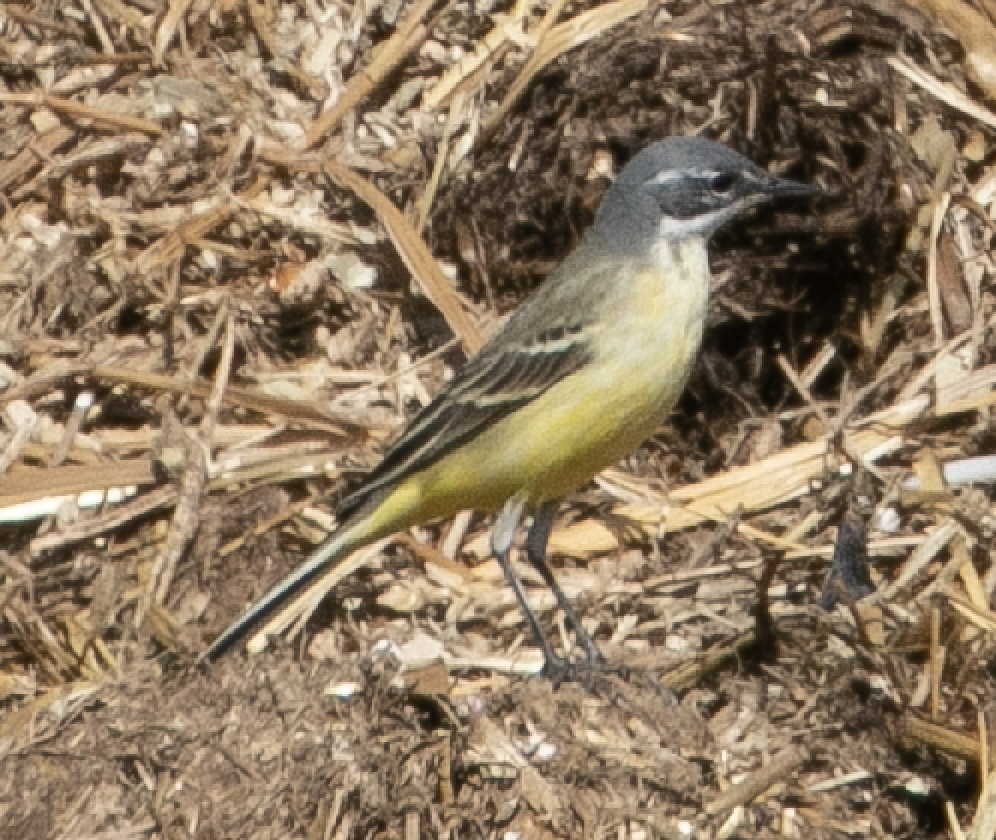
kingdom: Animalia
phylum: Chordata
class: Aves
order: Passeriformes
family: Motacillidae
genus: Motacilla
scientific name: Motacilla flava
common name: Western yellow wagtail
